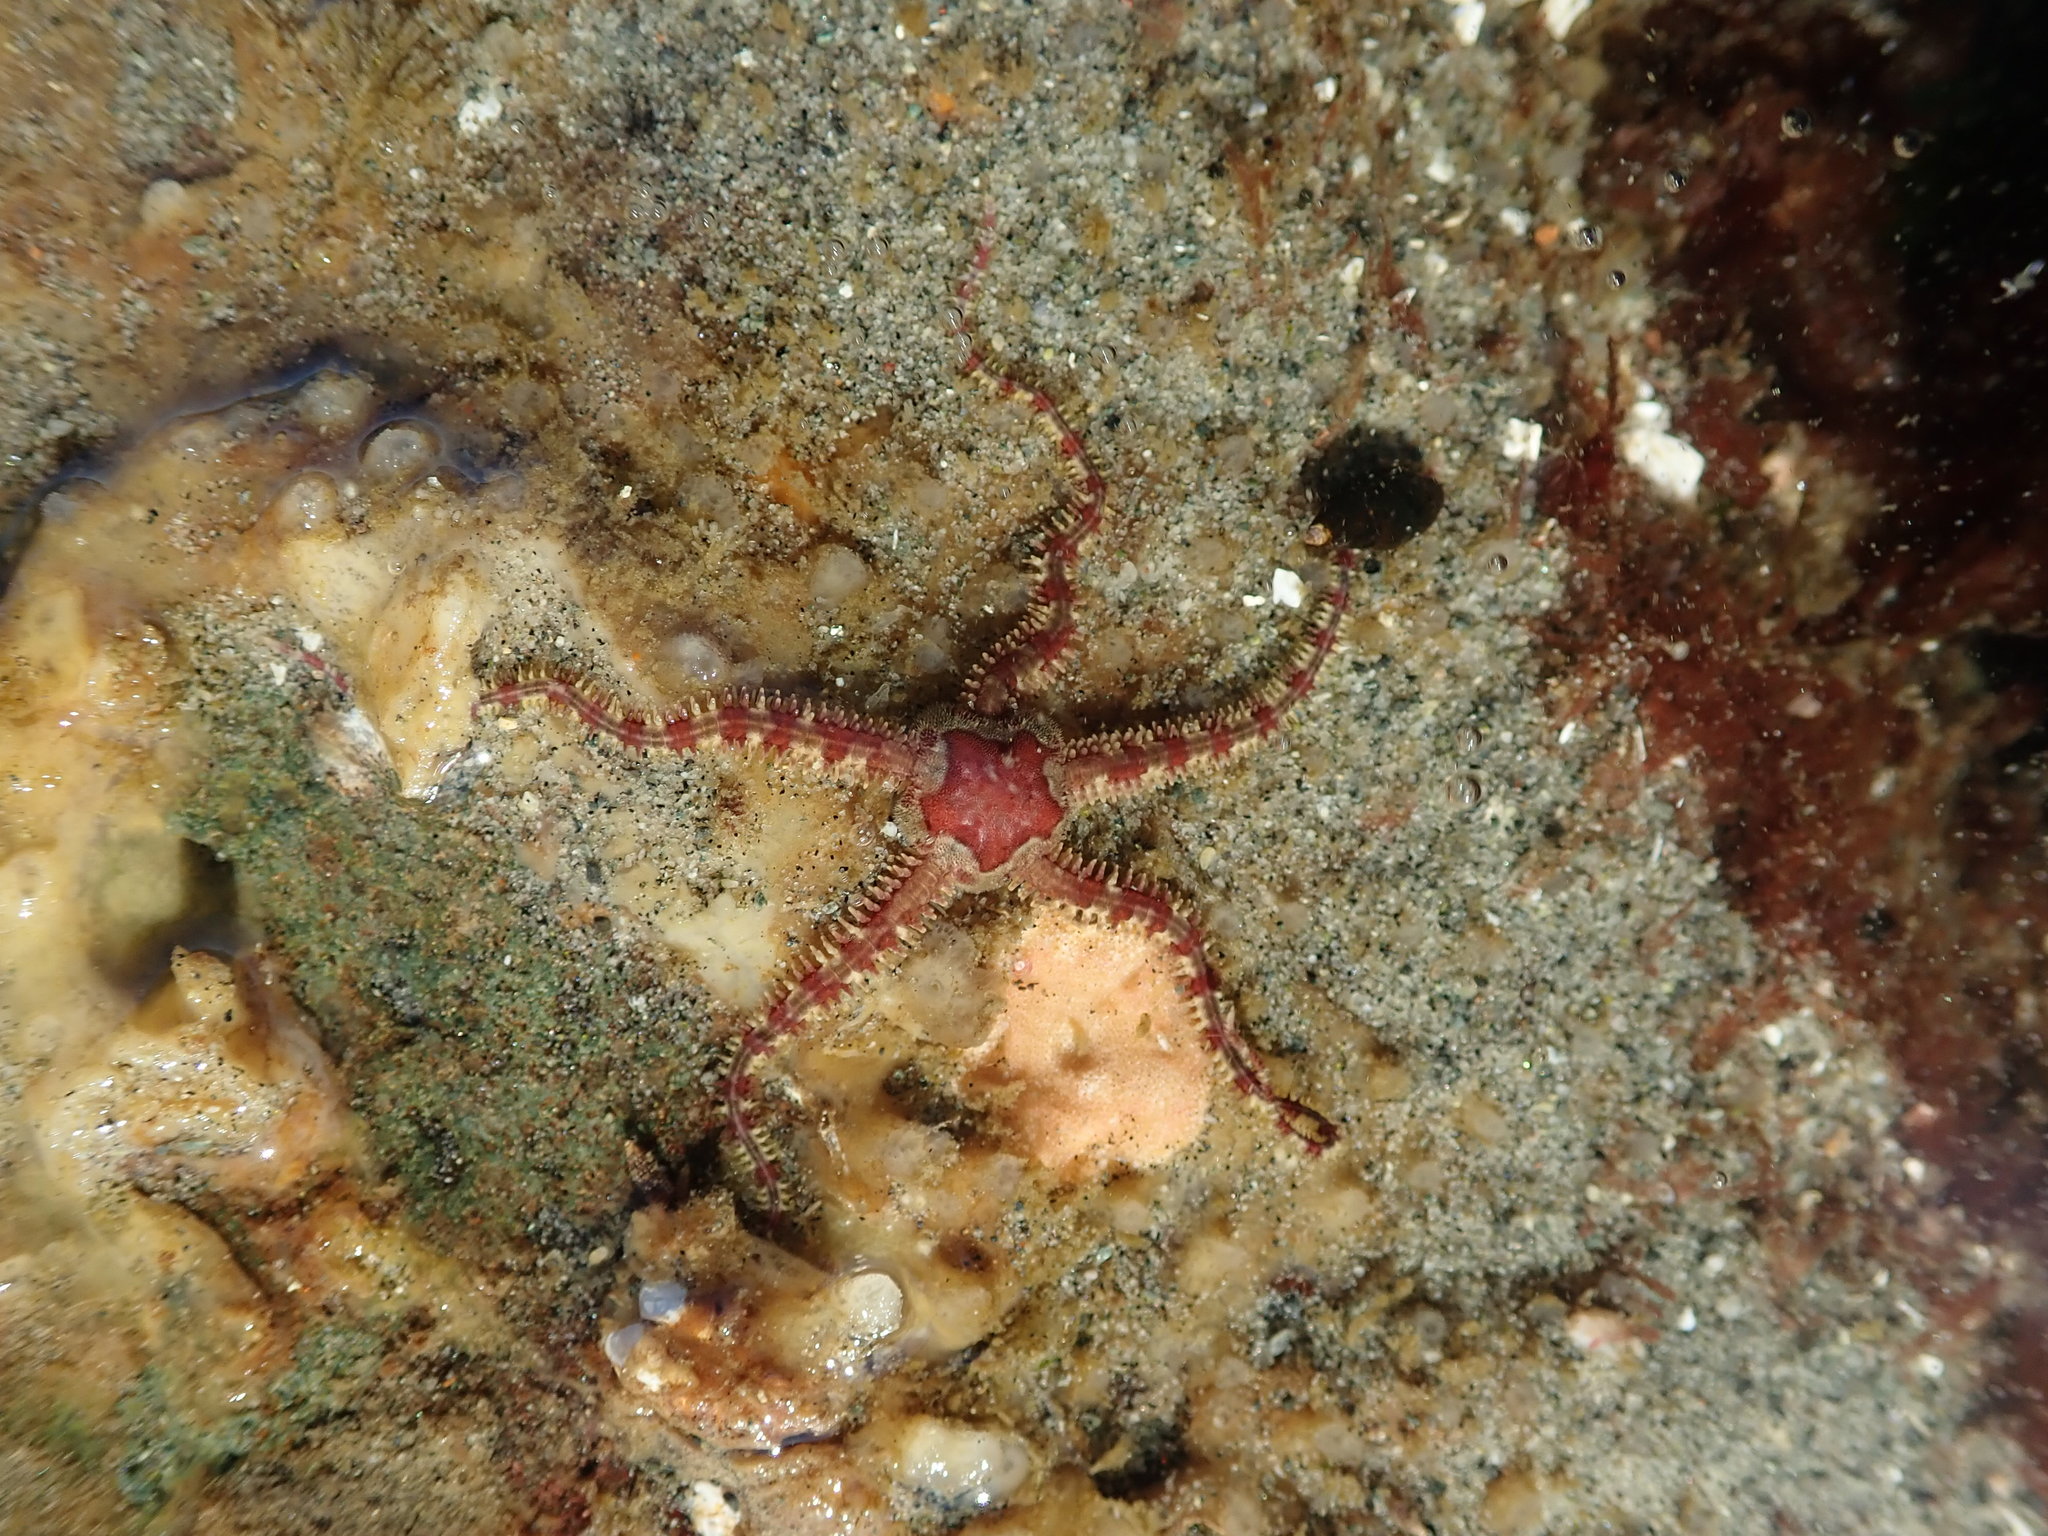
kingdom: Animalia
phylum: Echinodermata
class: Ophiuroidea
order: Amphilepidida
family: Ophiopholidae
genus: Ophiopholis
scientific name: Ophiopholis aculeata
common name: Crevice brittlestar
